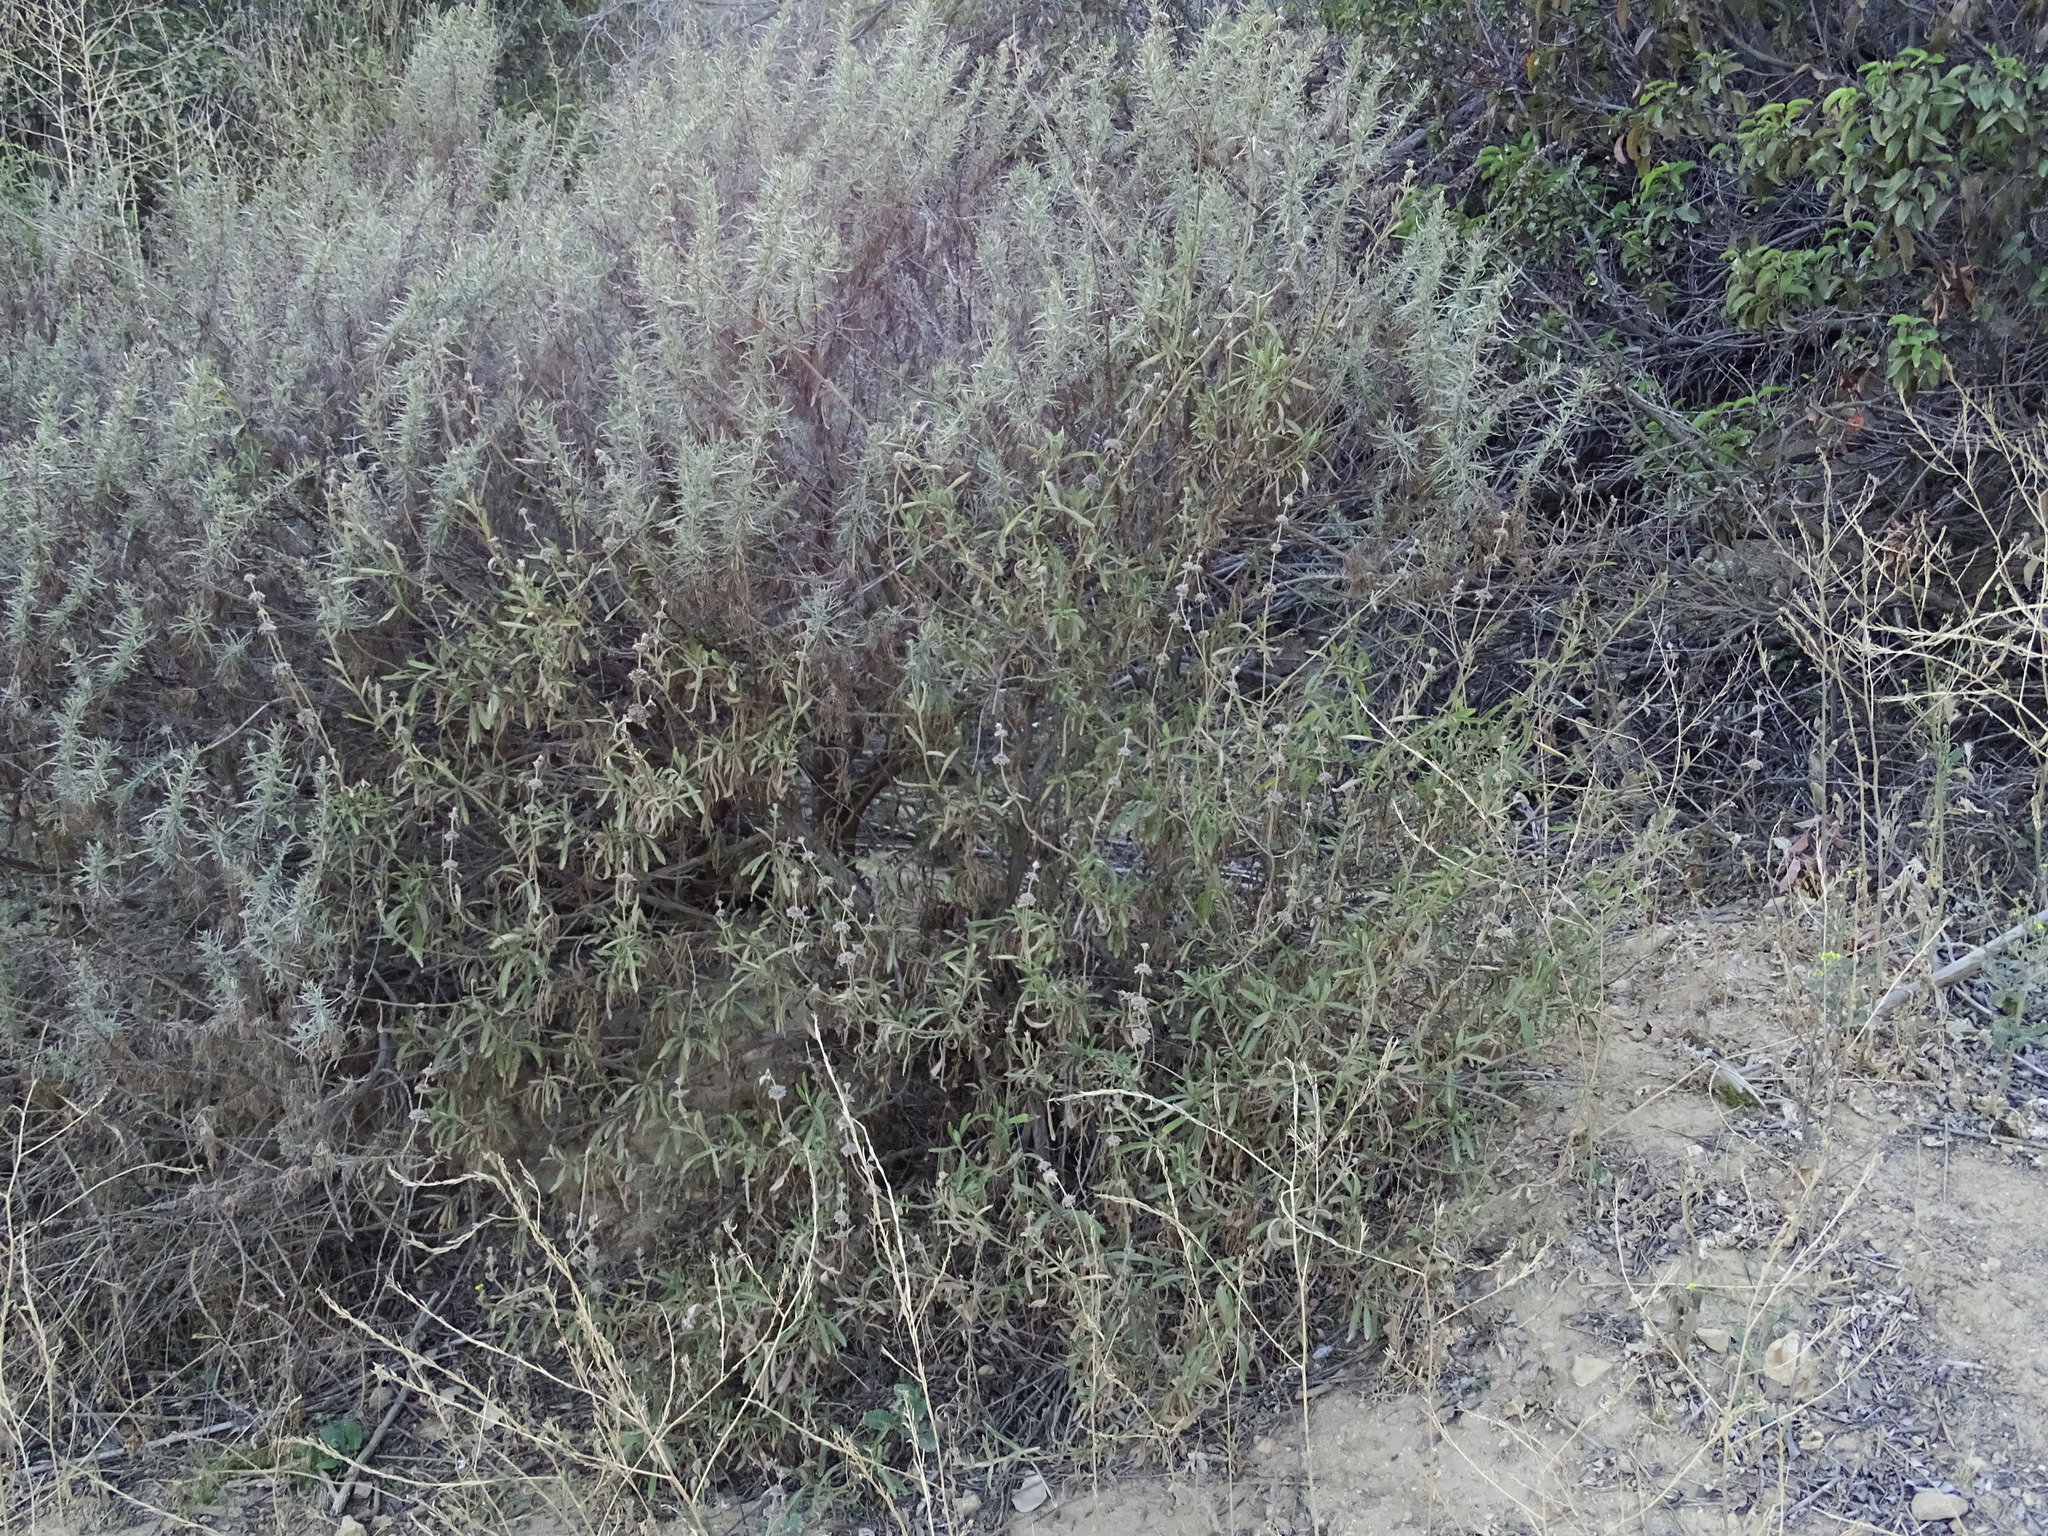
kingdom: Plantae
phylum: Tracheophyta
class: Magnoliopsida
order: Lamiales
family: Lamiaceae
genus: Salvia
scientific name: Salvia mellifera
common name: Black sage
